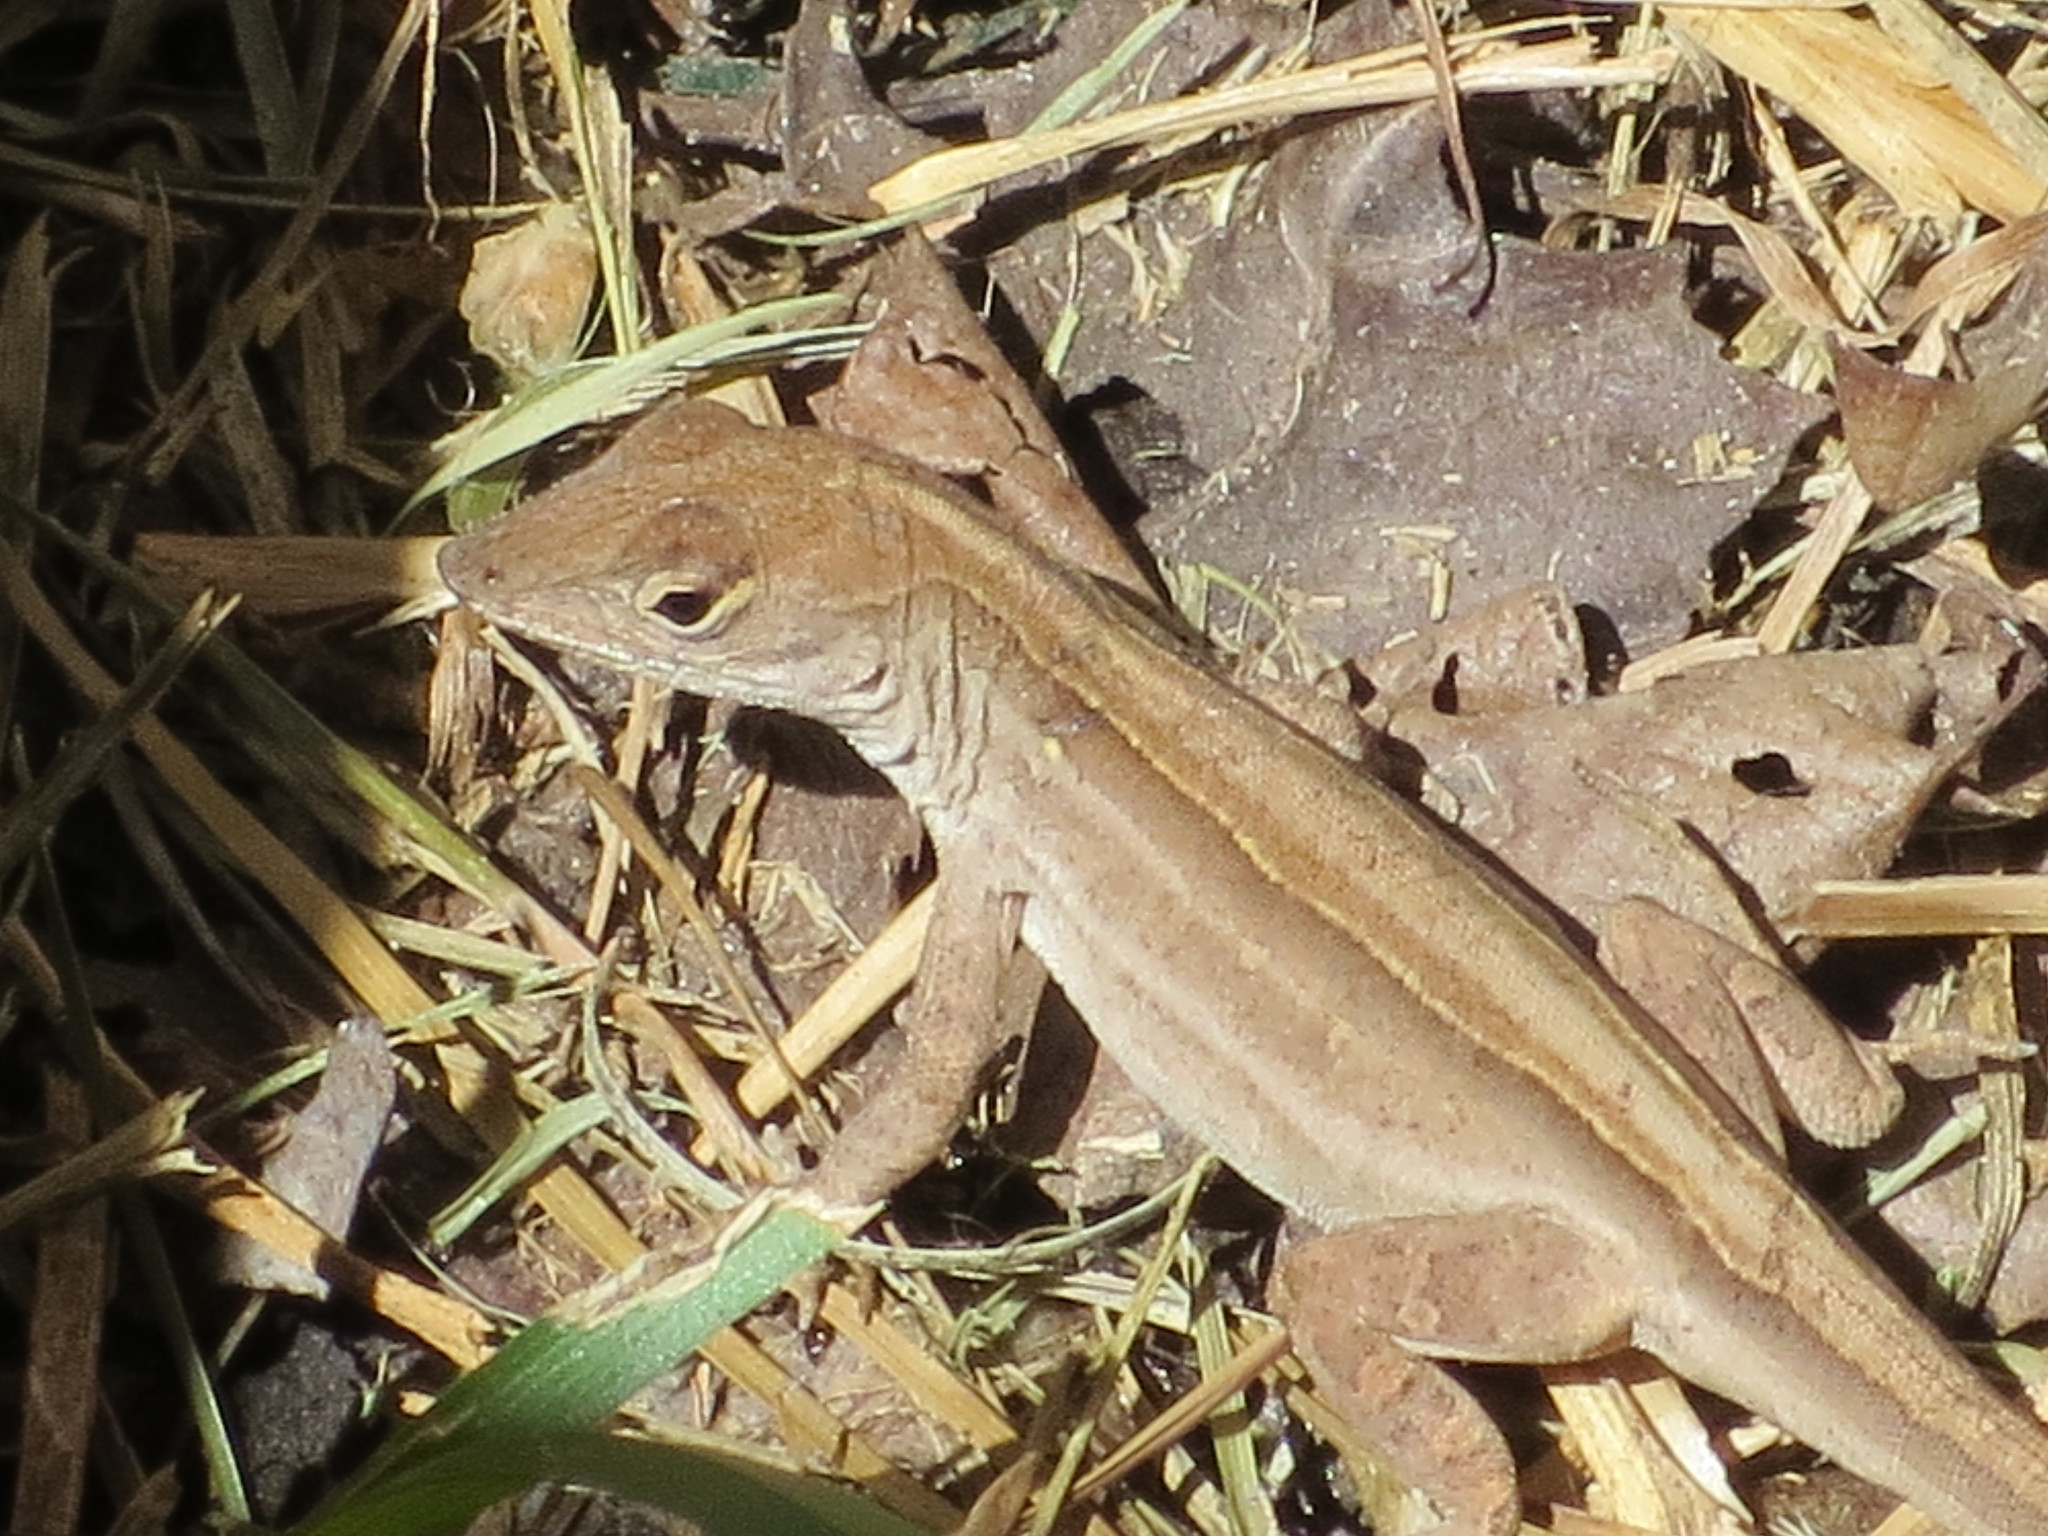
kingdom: Animalia
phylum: Chordata
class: Squamata
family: Dactyloidae
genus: Anolis
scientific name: Anolis sagrei
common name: Brown anole
